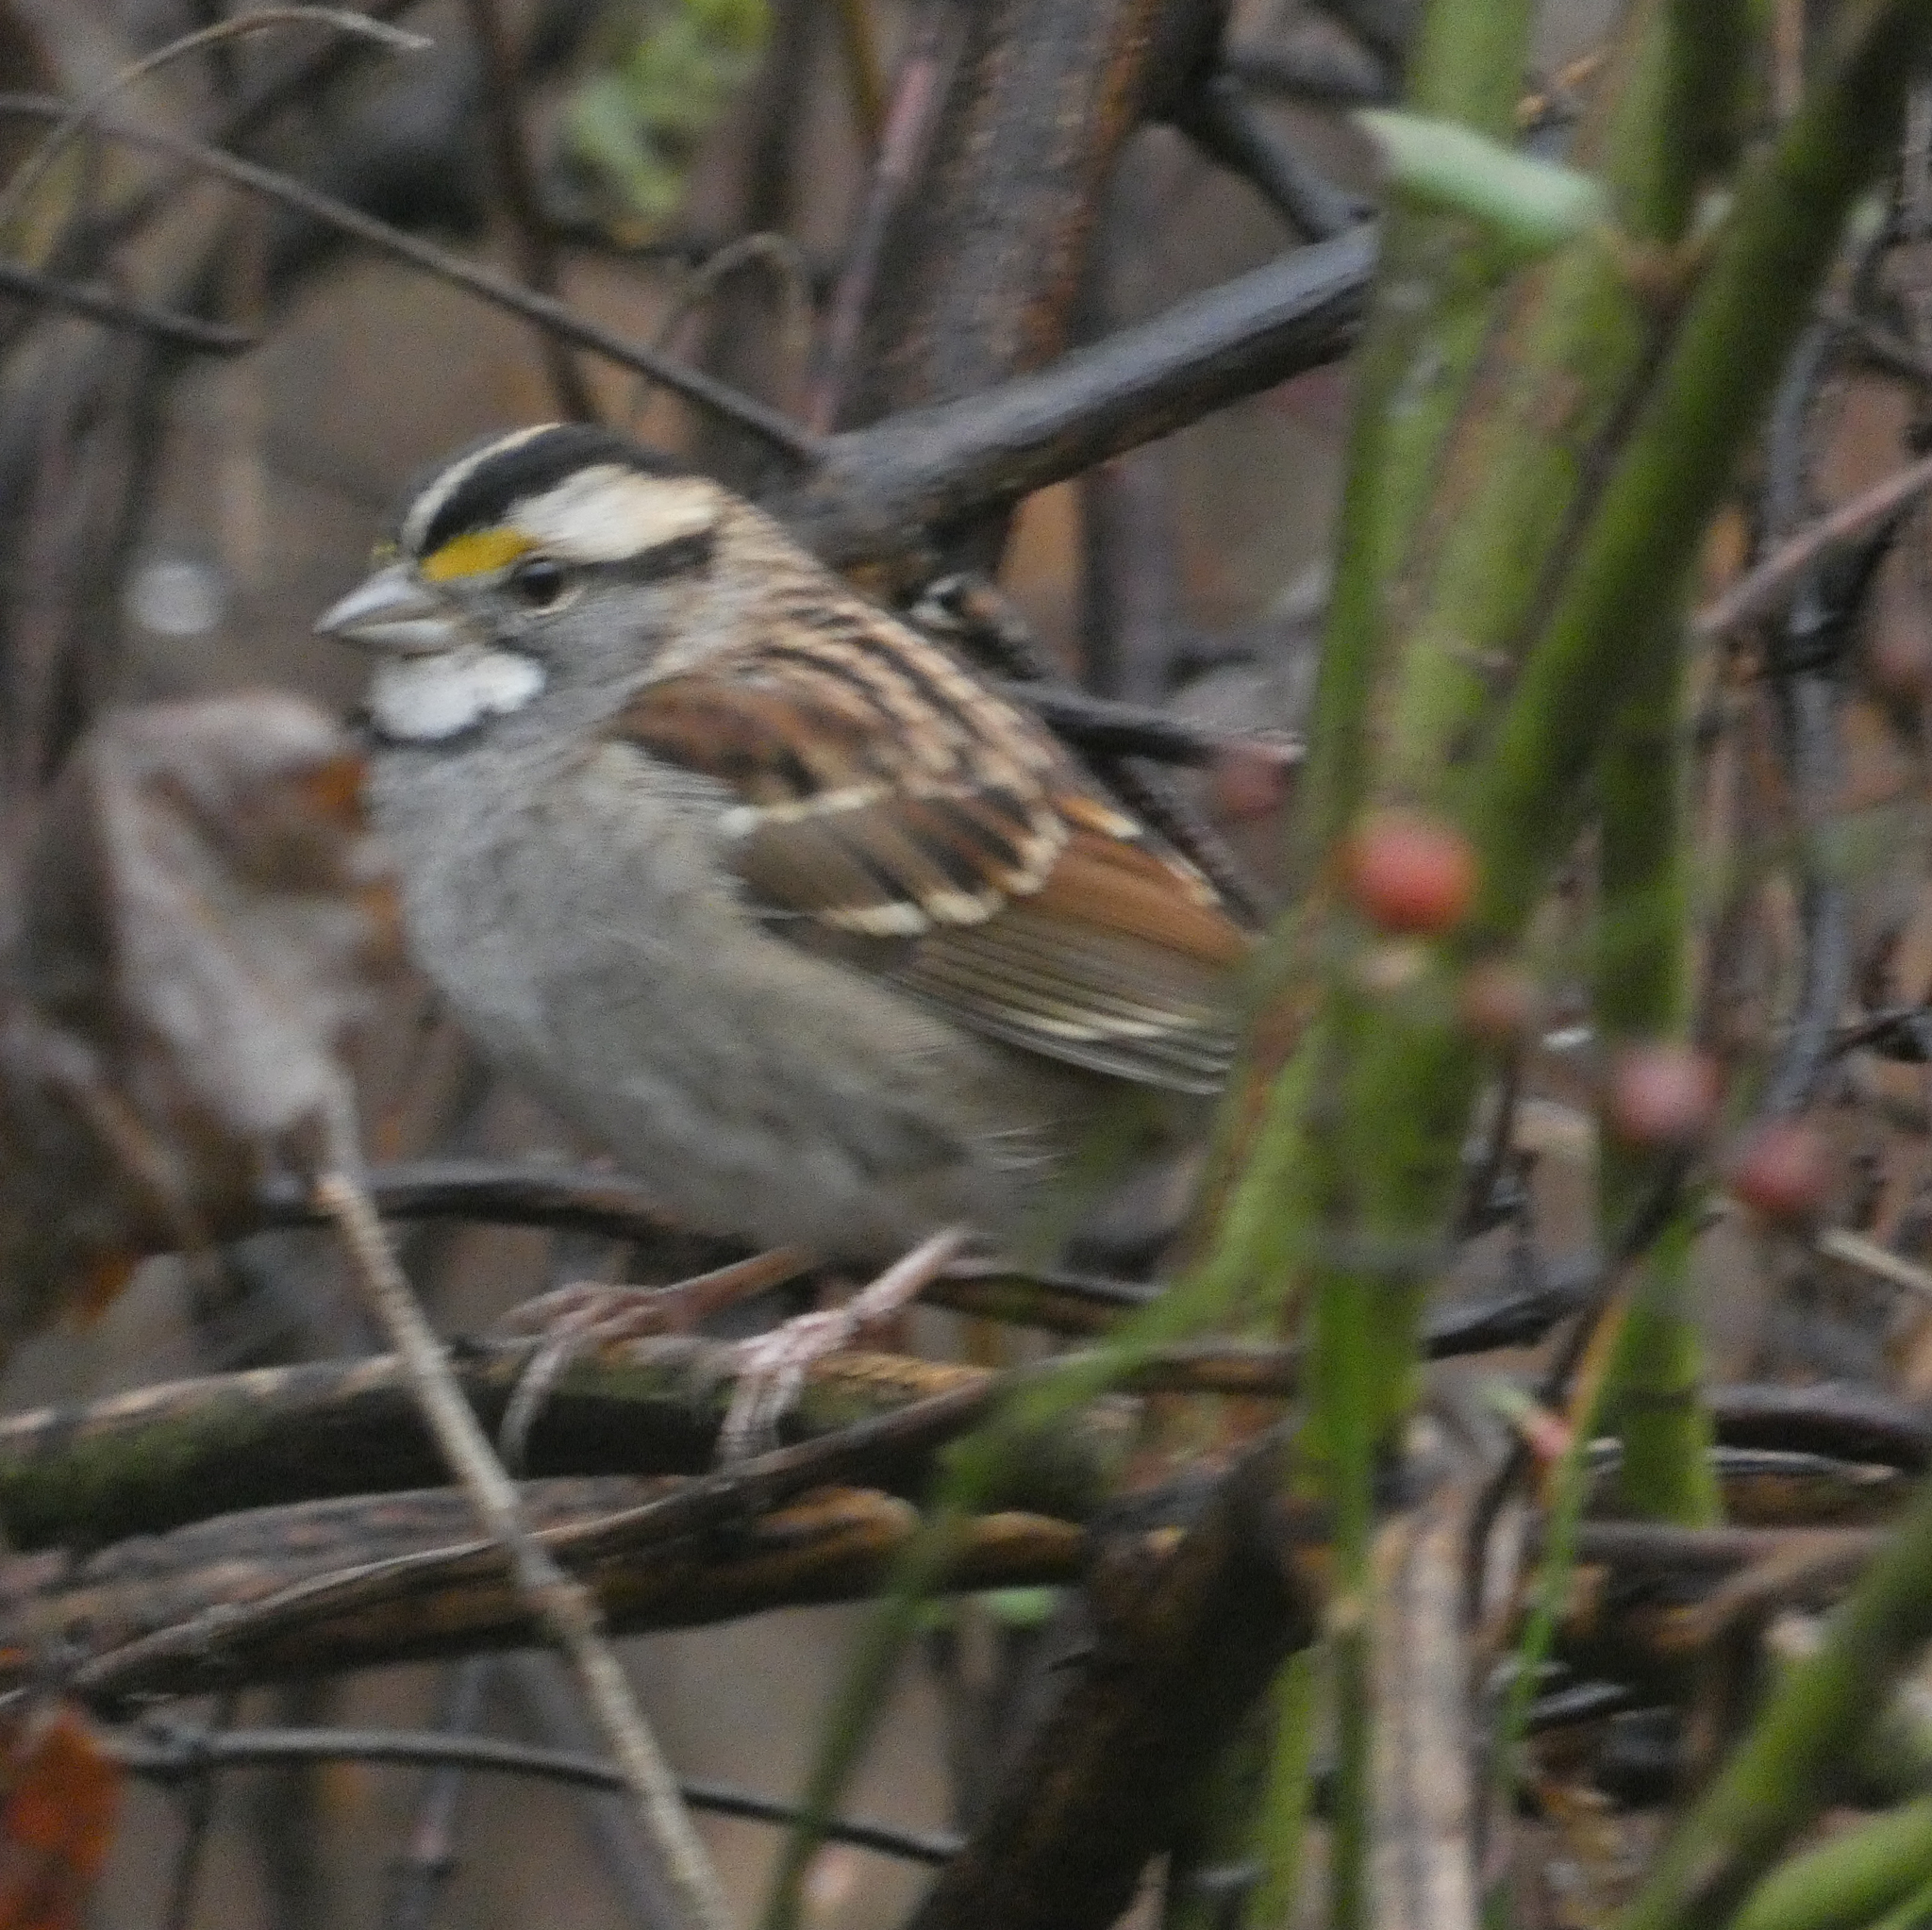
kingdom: Animalia
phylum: Chordata
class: Aves
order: Passeriformes
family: Passerellidae
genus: Zonotrichia
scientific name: Zonotrichia albicollis
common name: White-throated sparrow
